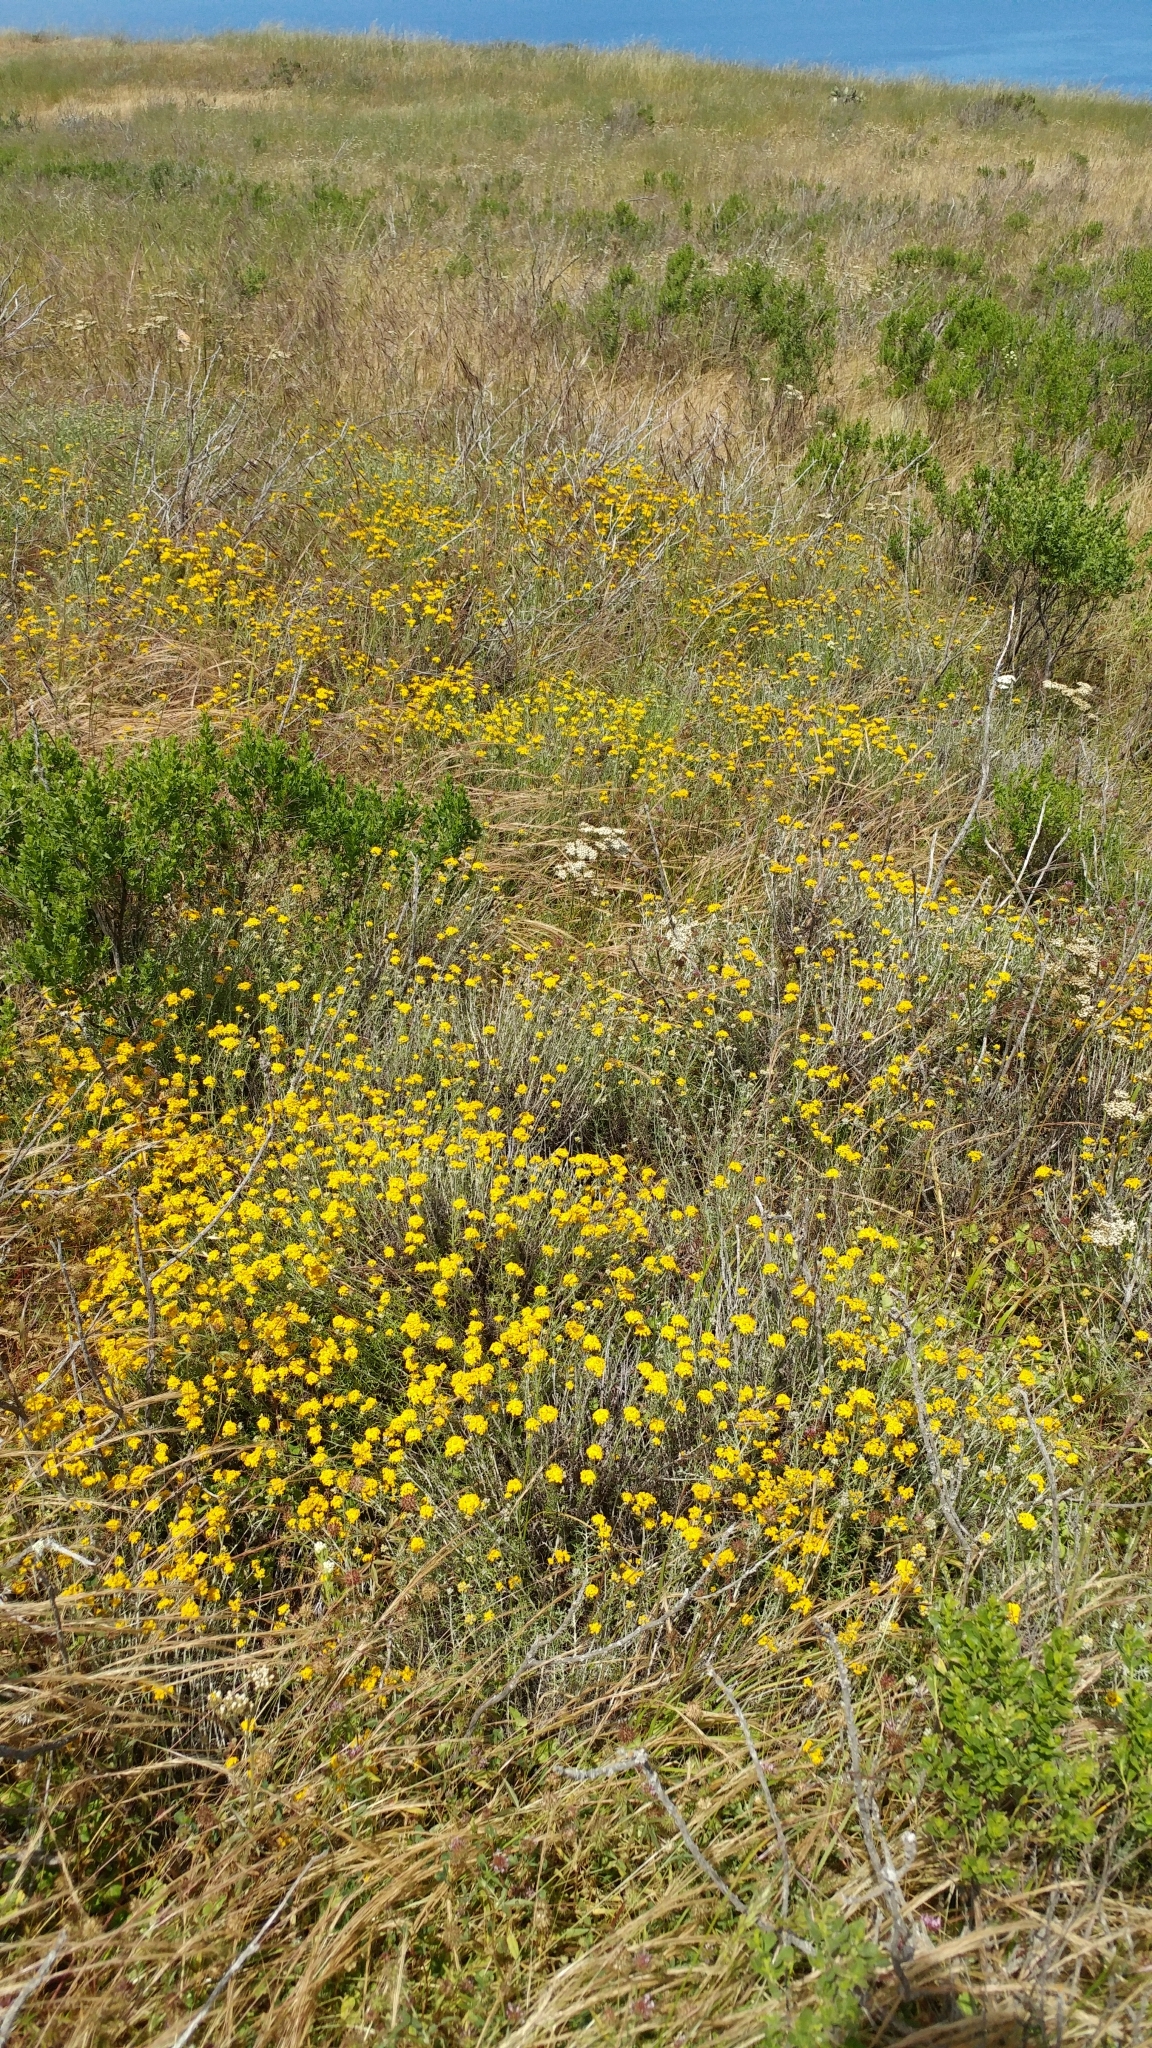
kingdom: Plantae
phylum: Tracheophyta
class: Magnoliopsida
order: Asterales
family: Asteraceae
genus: Eriophyllum
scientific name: Eriophyllum confertiflorum
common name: Golden-yarrow
